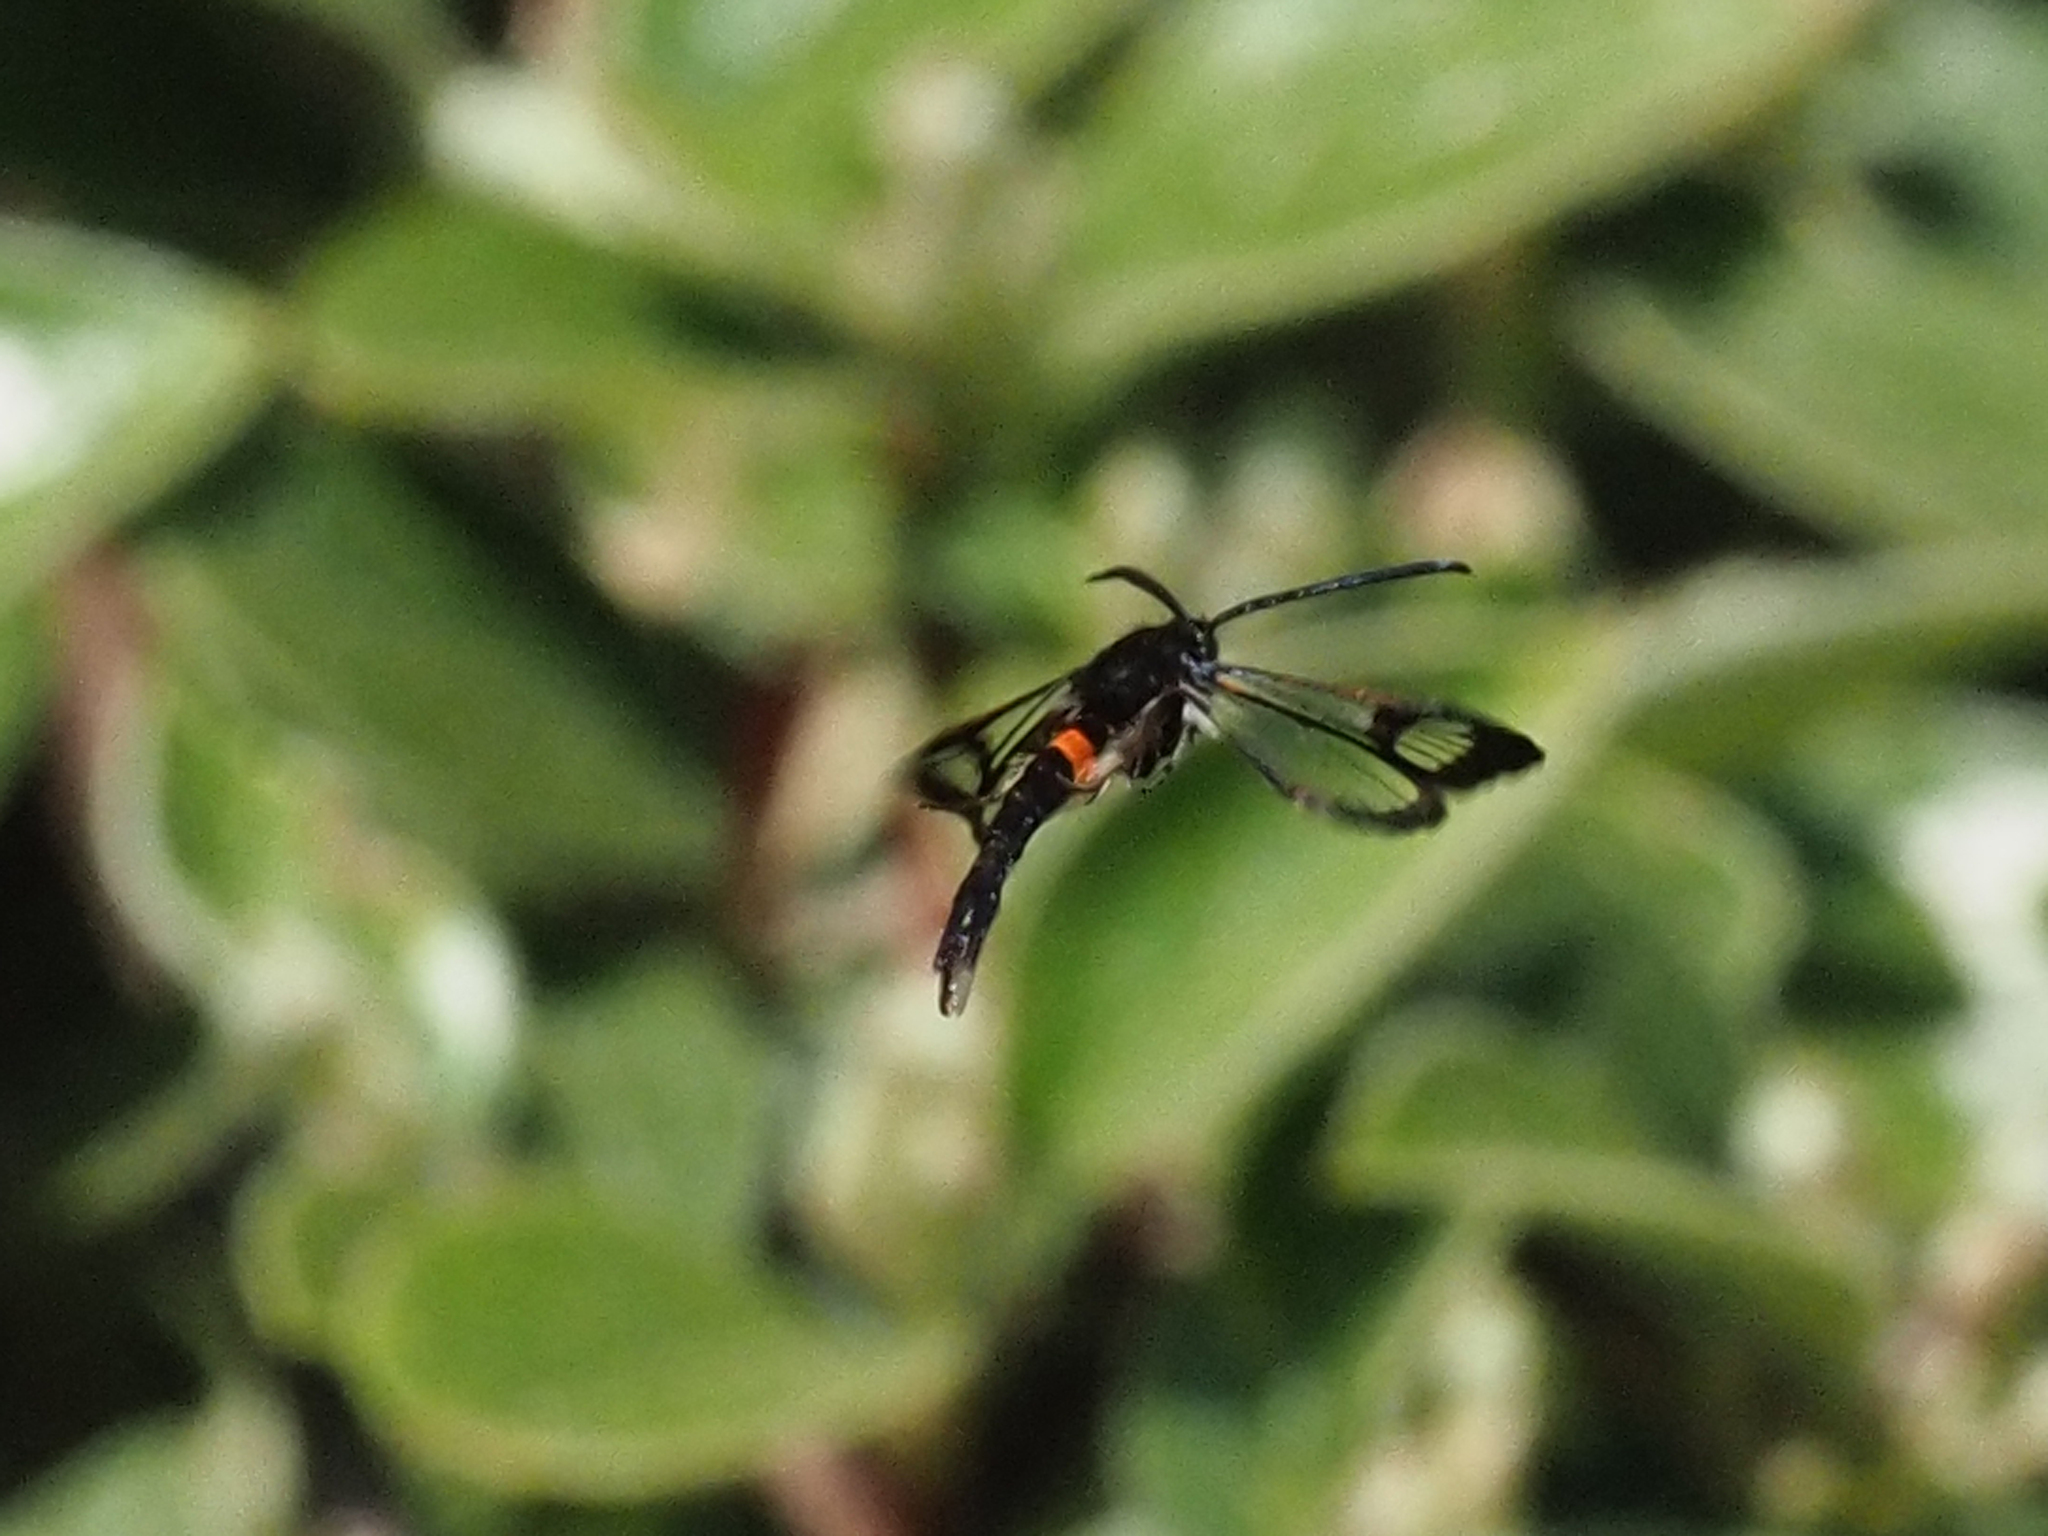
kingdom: Animalia
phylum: Arthropoda
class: Insecta
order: Lepidoptera
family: Sesiidae
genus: Synanthedon
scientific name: Synanthedon myopaeformis
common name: Red-belted clearwing
